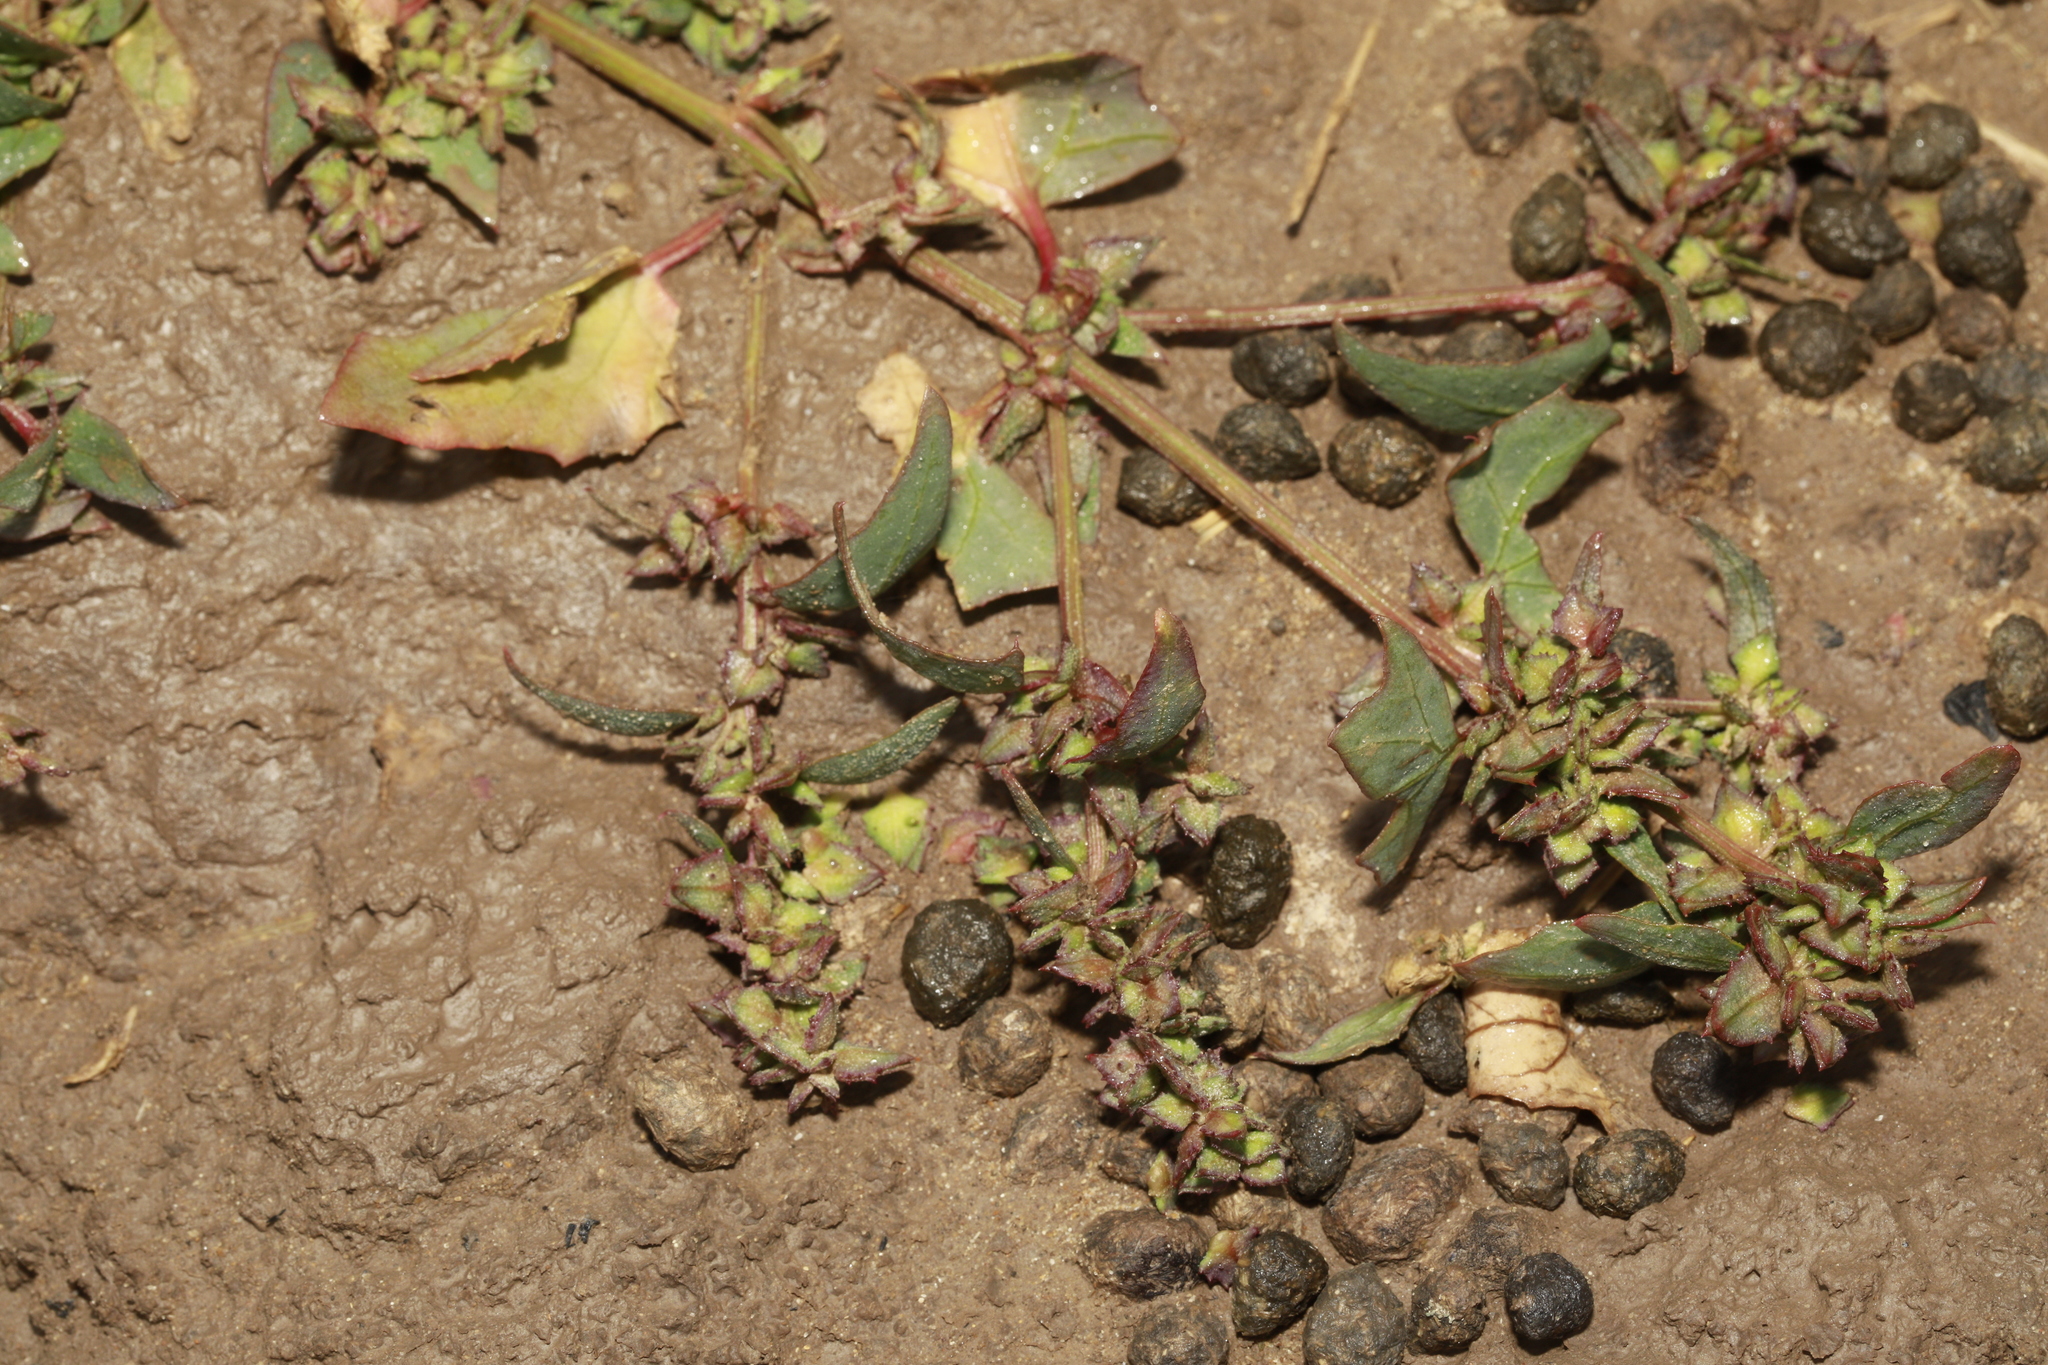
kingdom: Animalia
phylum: Chordata
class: Mammalia
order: Lagomorpha
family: Leporidae
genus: Oryctolagus
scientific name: Oryctolagus cuniculus
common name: European rabbit
